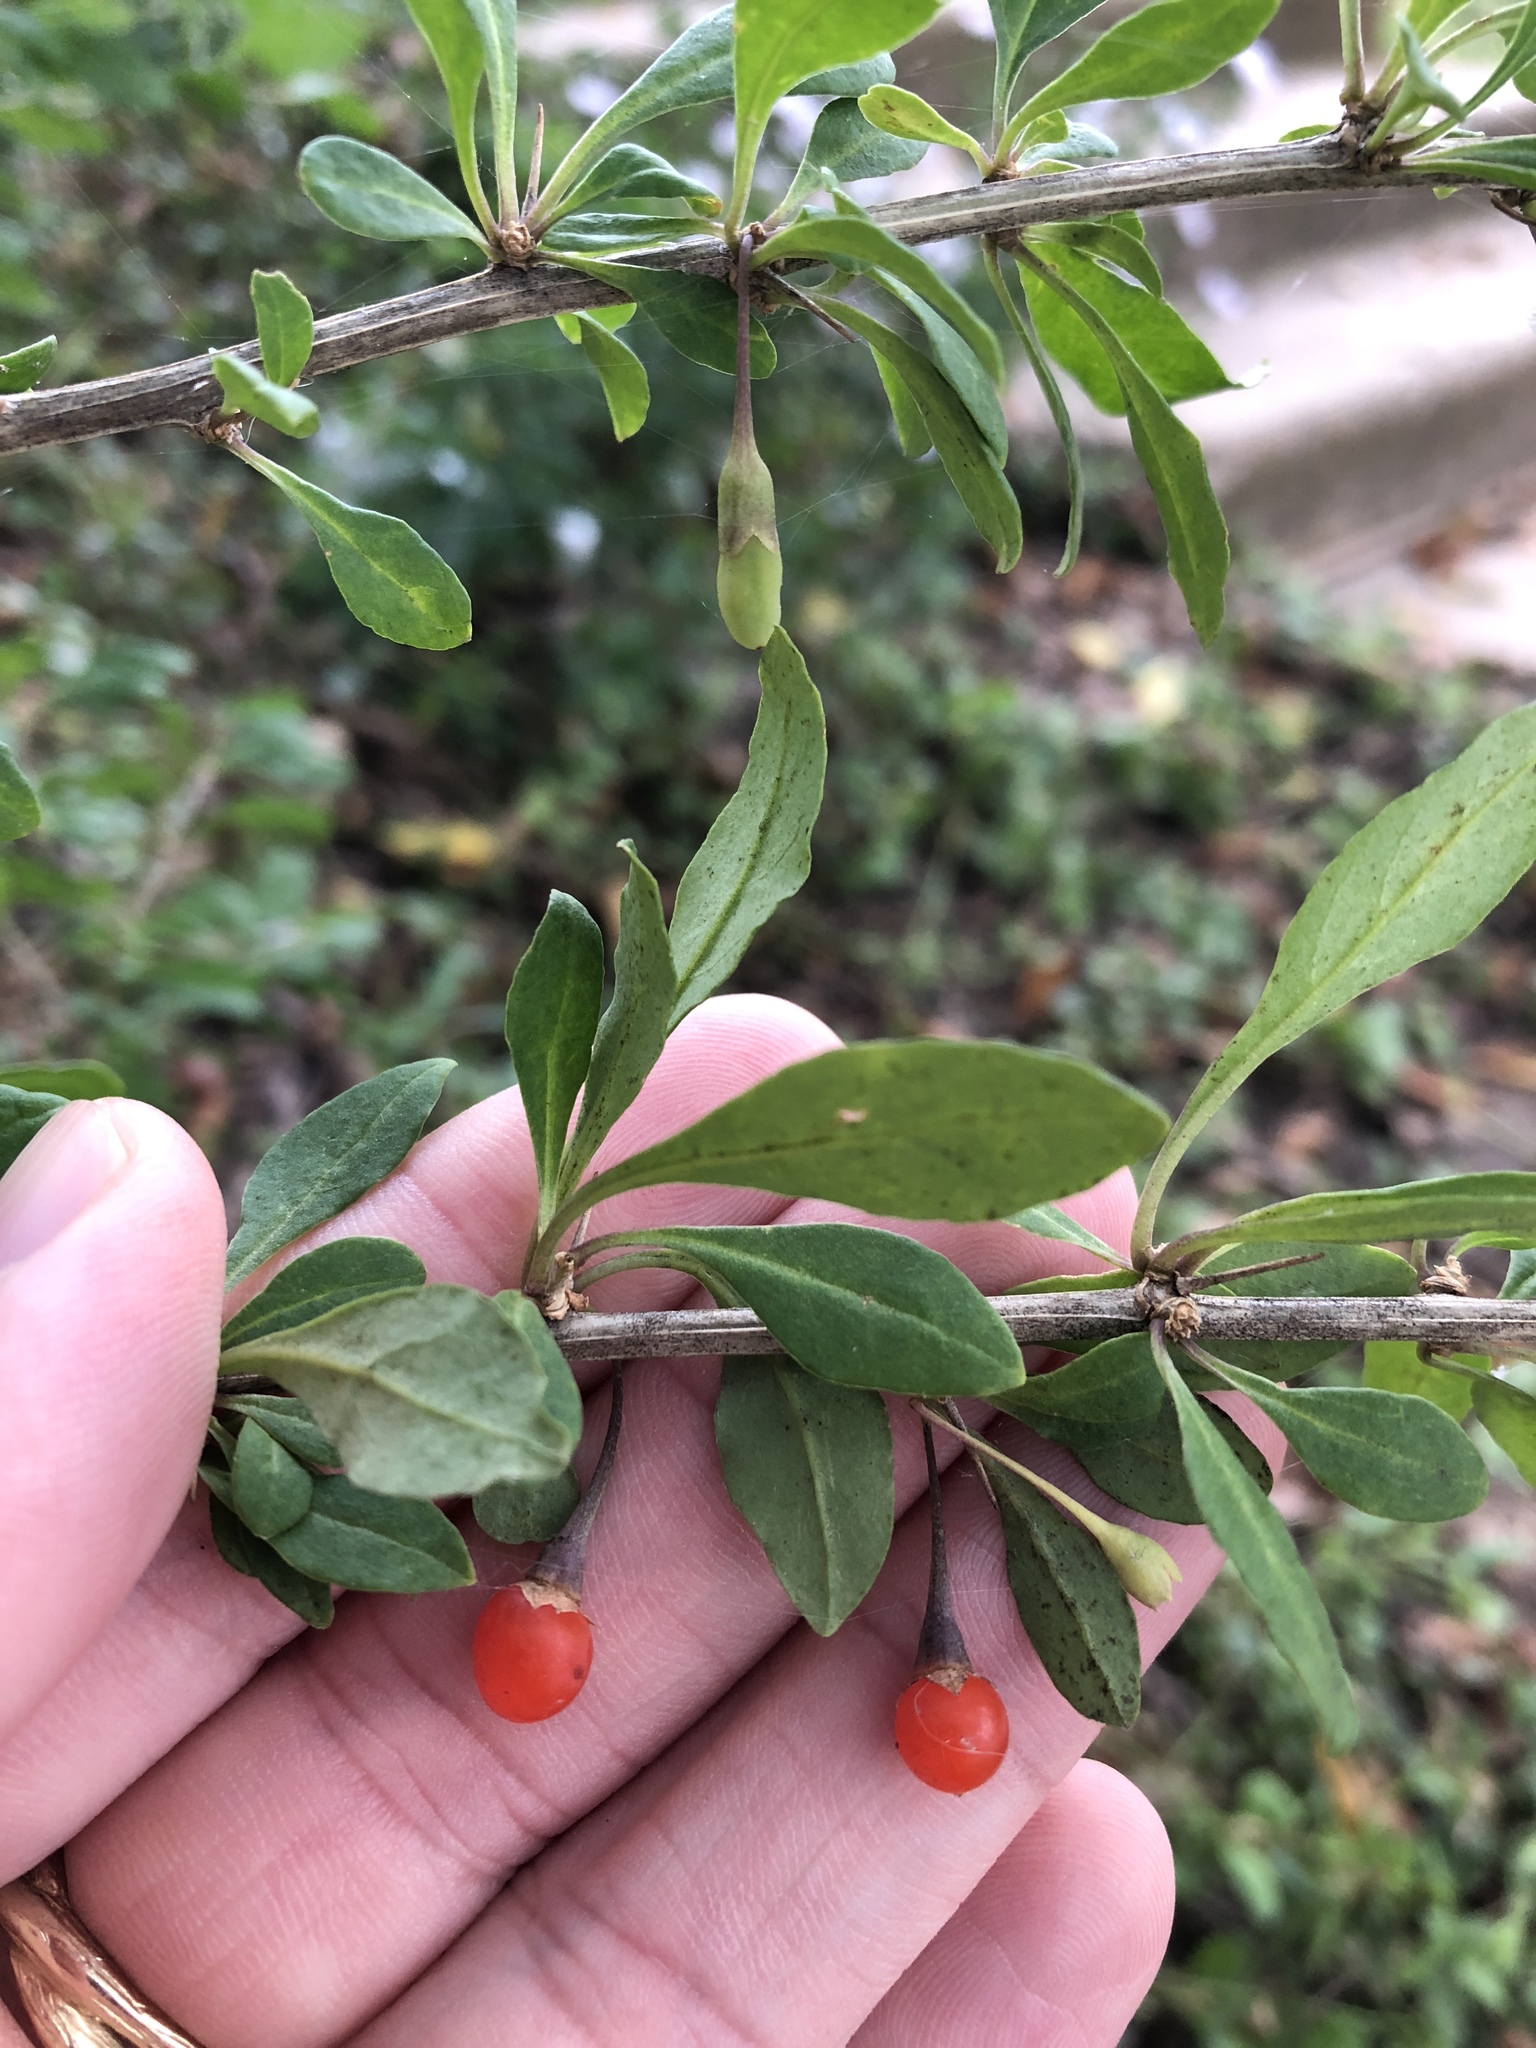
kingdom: Plantae
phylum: Tracheophyta
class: Magnoliopsida
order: Solanales
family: Solanaceae
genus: Lycium
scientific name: Lycium barbarum
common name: Duke of argyll's teaplant
